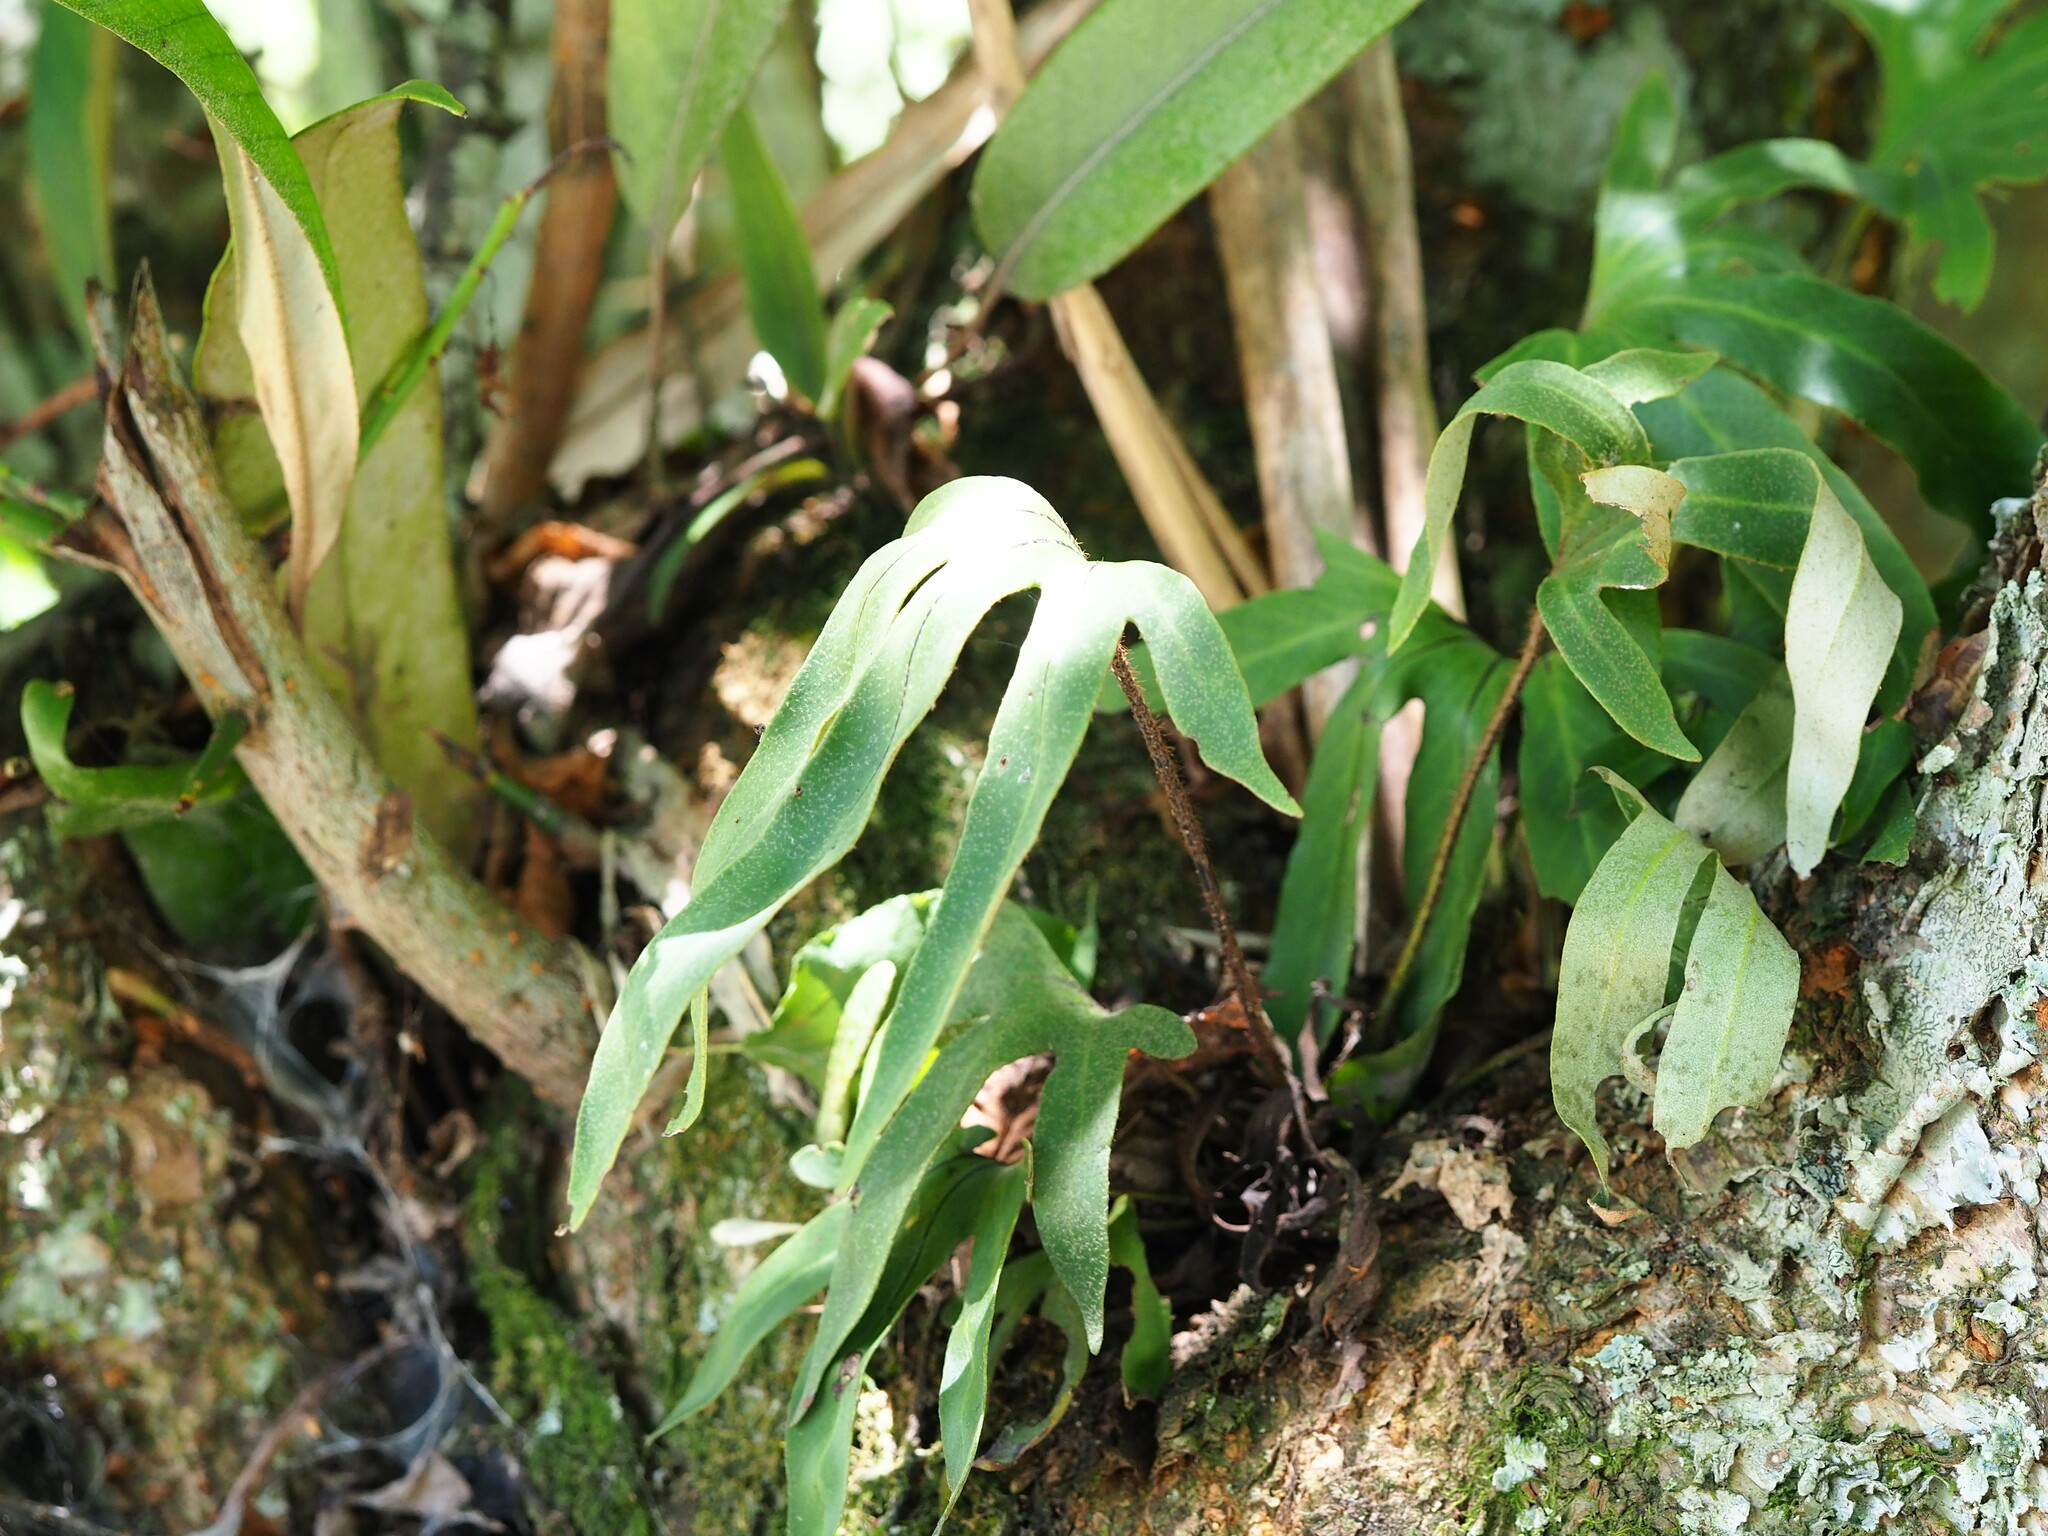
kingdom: Plantae
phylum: Tracheophyta
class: Polypodiopsida
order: Polypodiales
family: Polypodiaceae
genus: Pyrrosia
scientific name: Pyrrosia polydactyla
